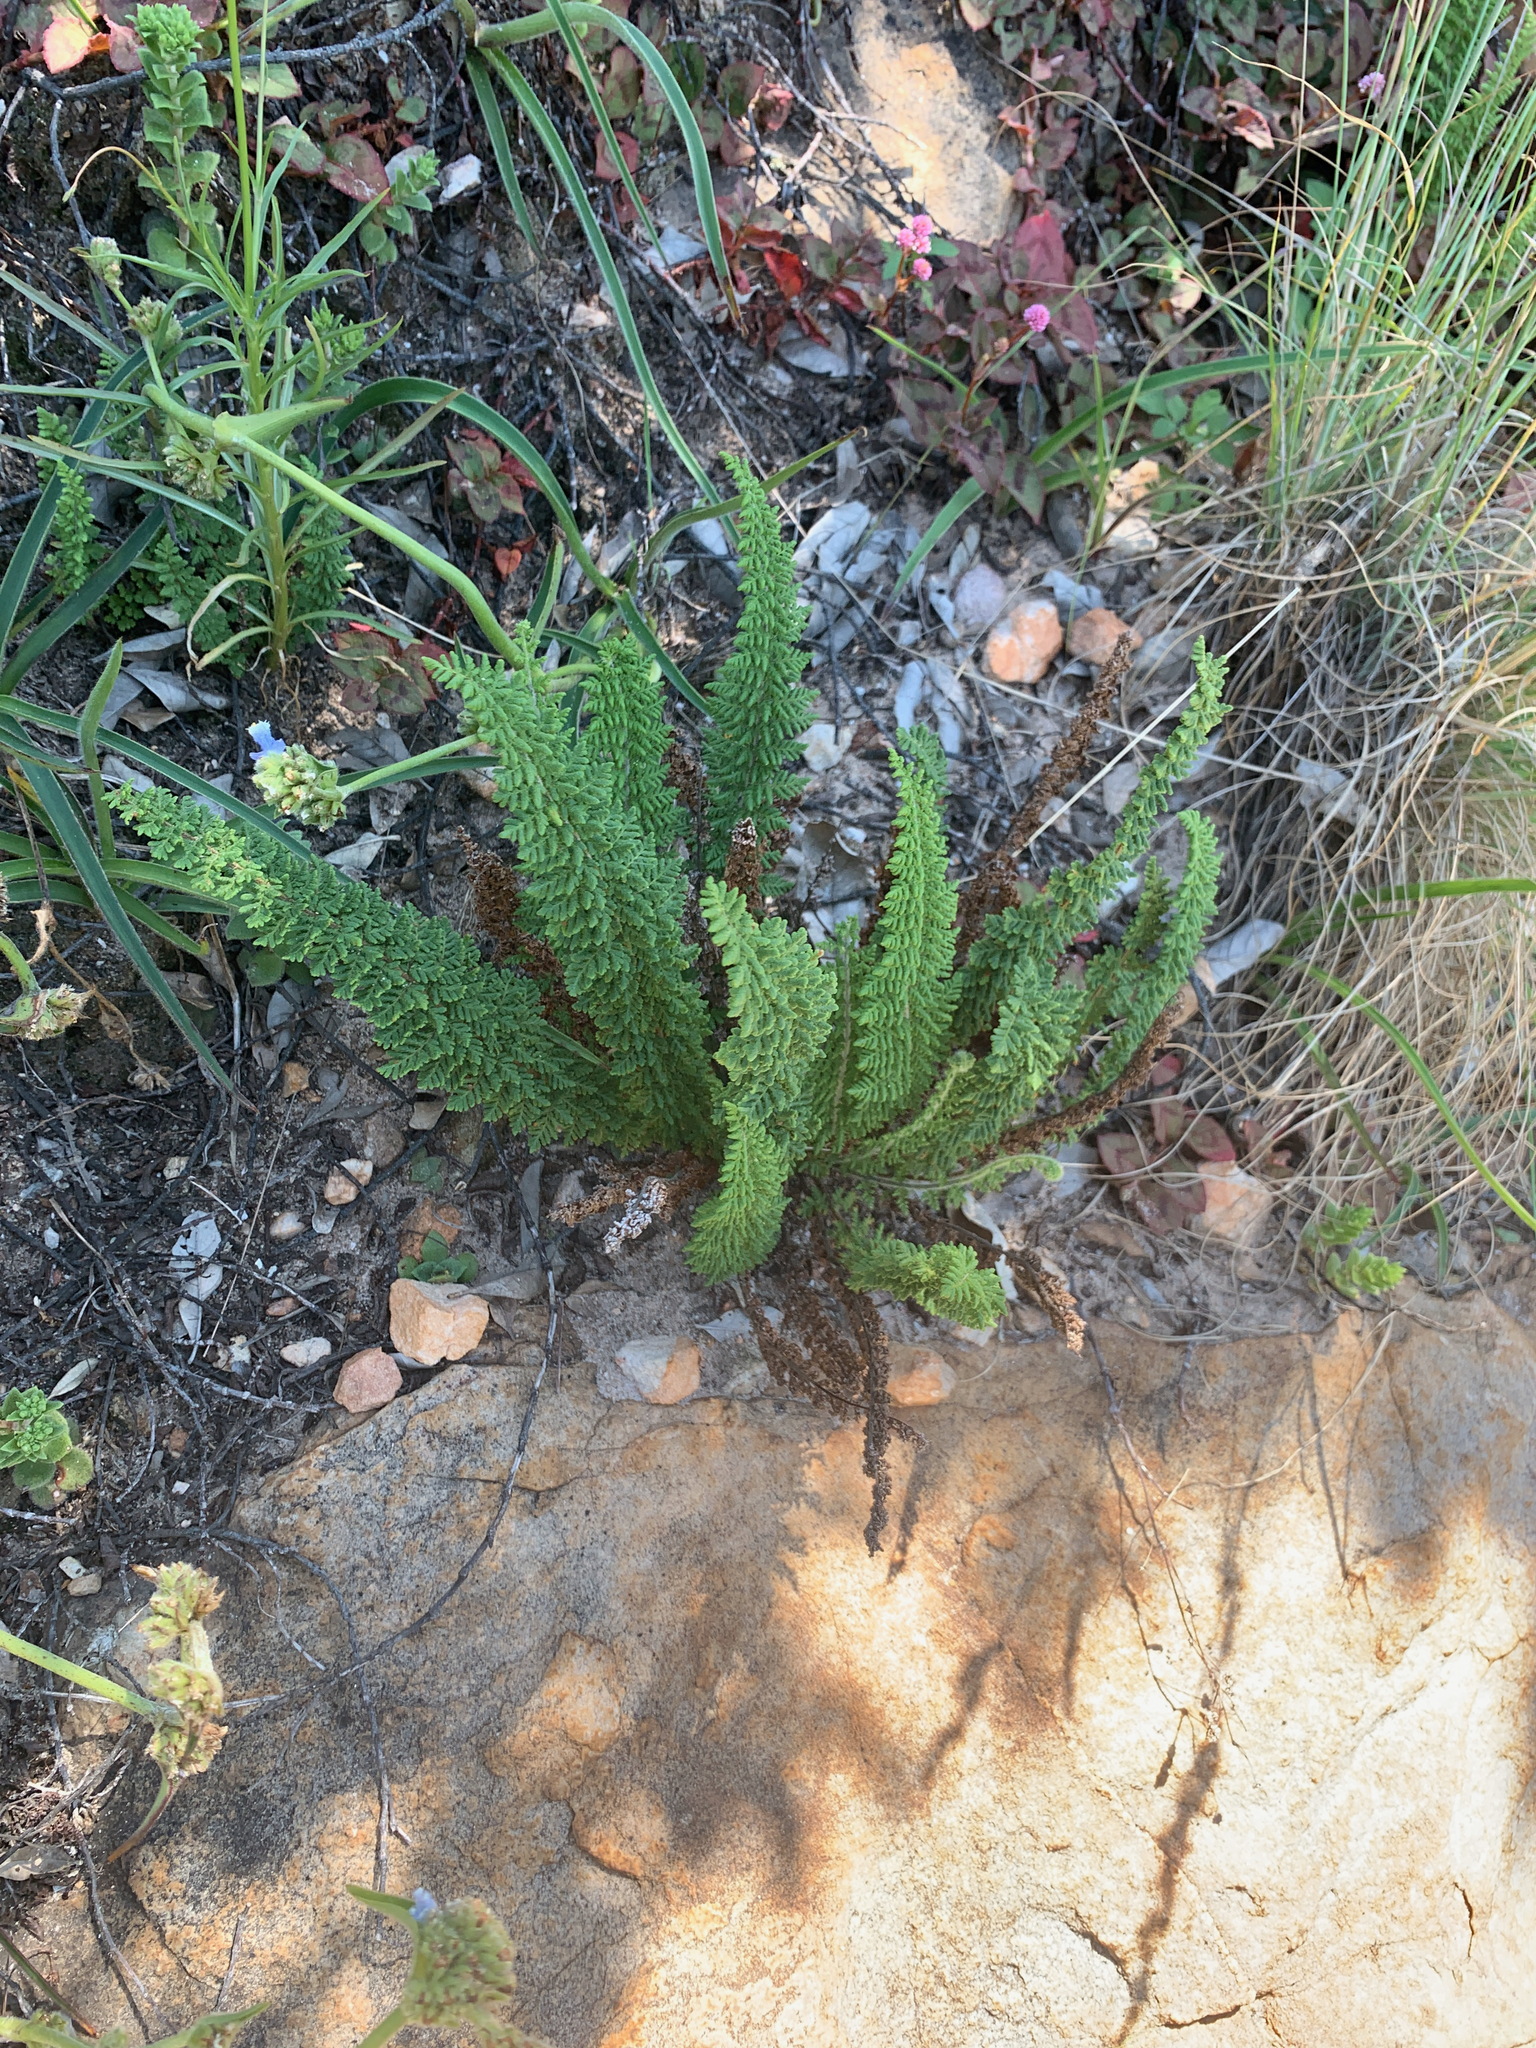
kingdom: Plantae
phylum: Tracheophyta
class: Polypodiopsida
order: Polypodiales
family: Pteridaceae
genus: Cheilanthes
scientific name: Cheilanthes hirta
